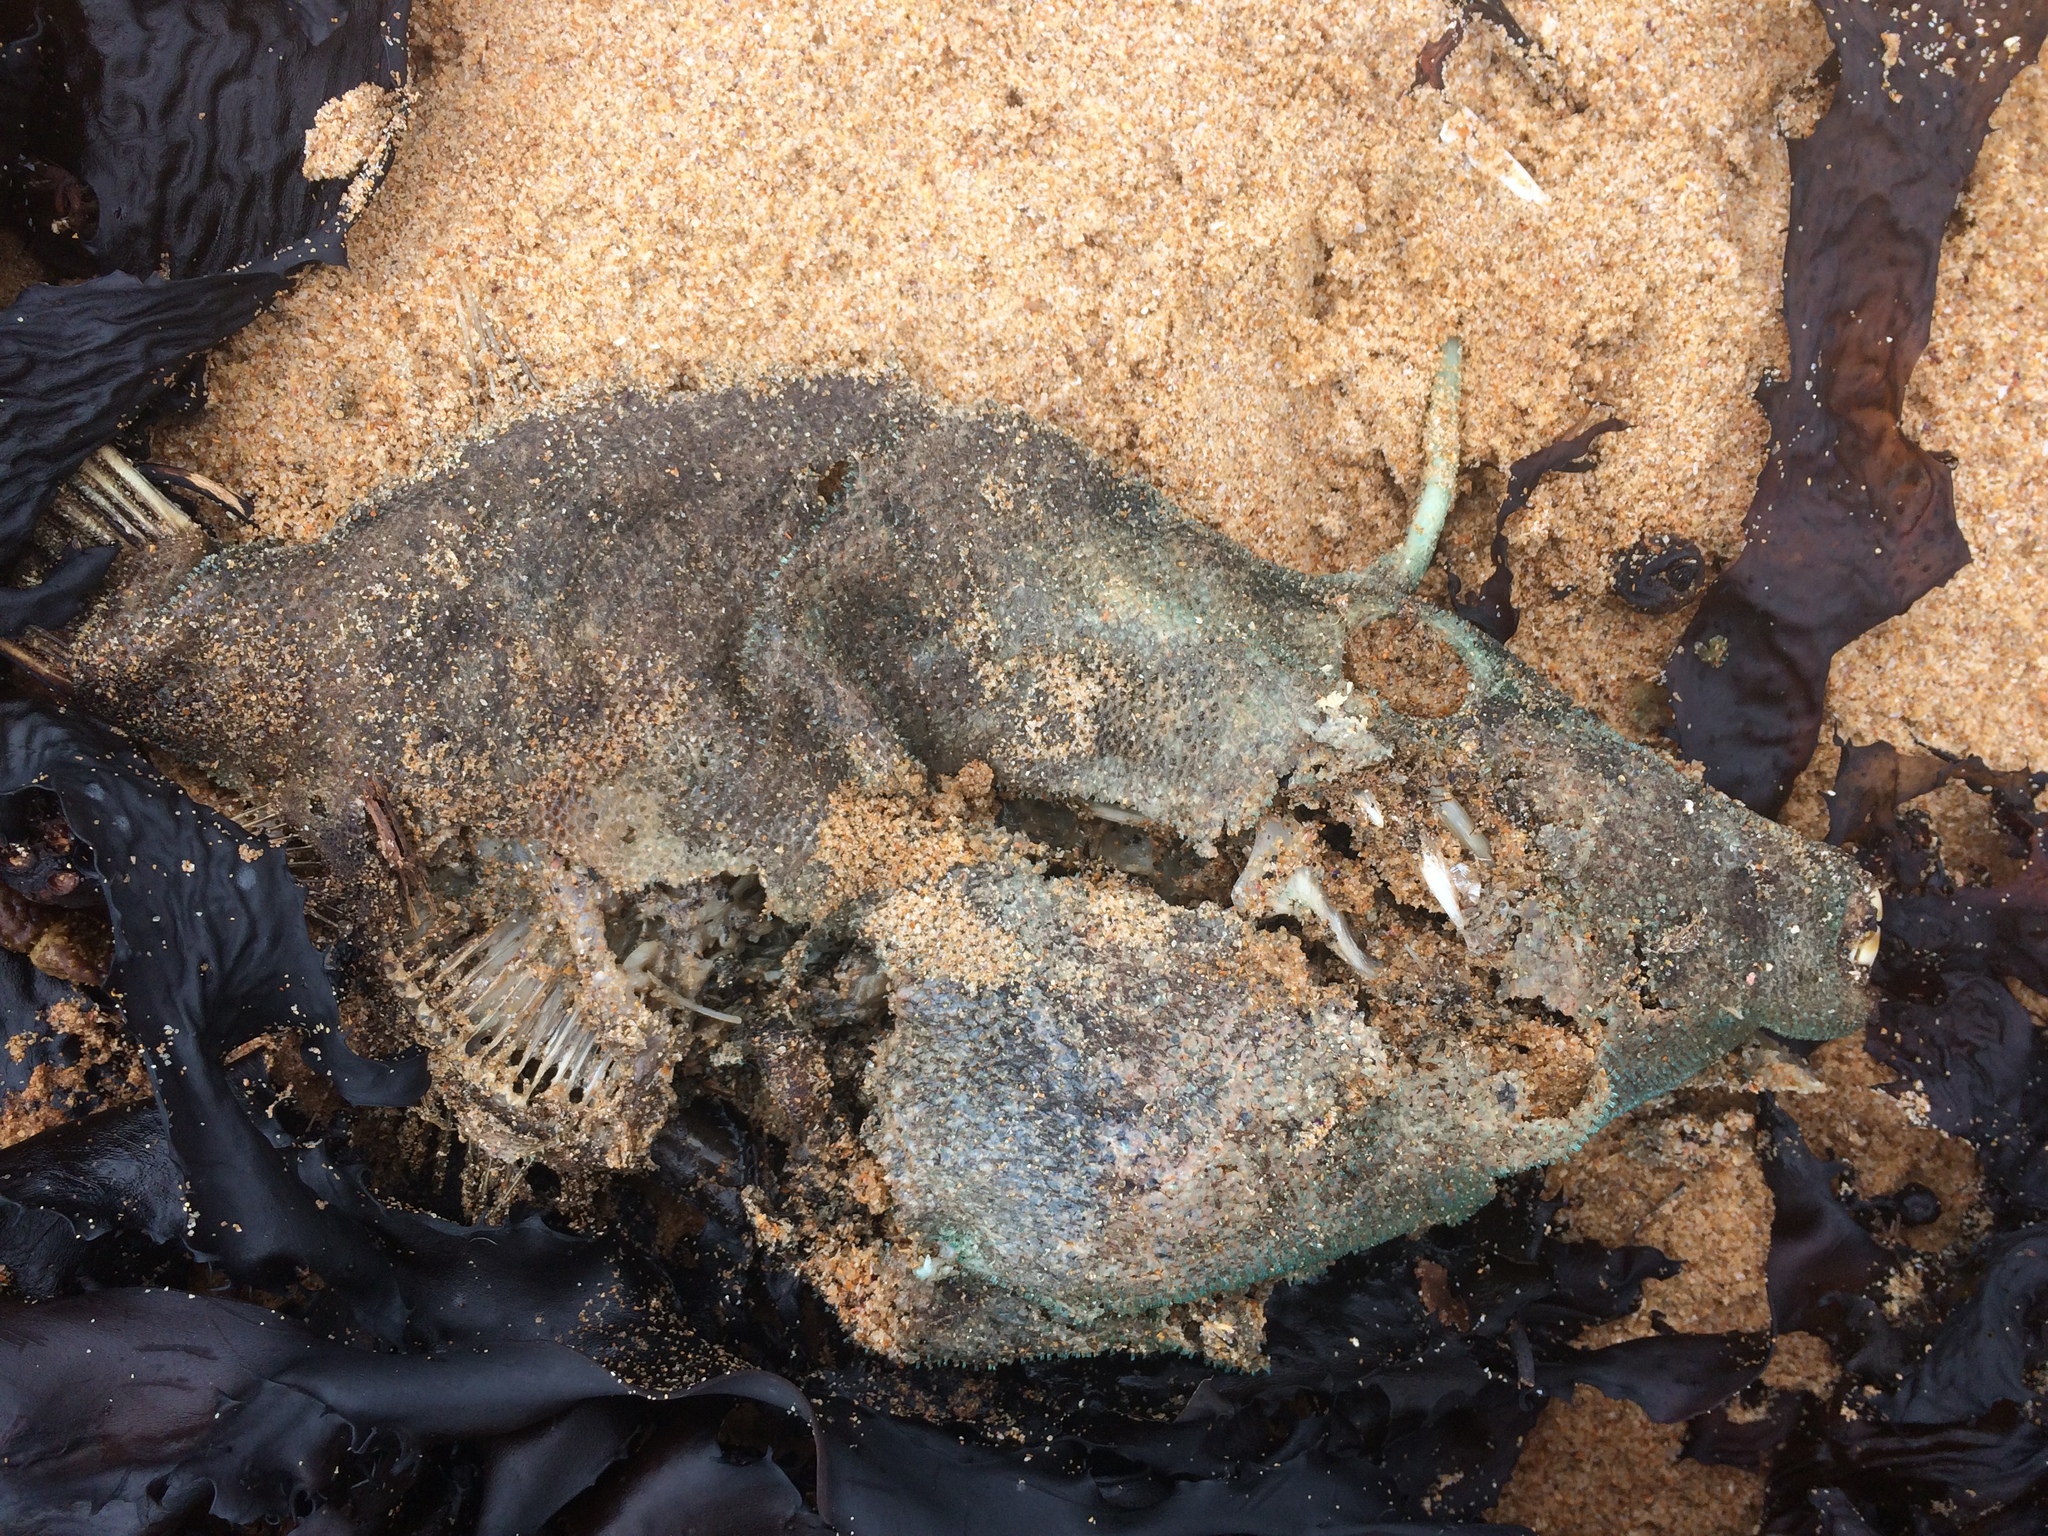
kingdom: Animalia
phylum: Chordata
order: Tetraodontiformes
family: Monacanthidae
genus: Acanthaluteres
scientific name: Acanthaluteres vittiger
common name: Brown leatherjacket
